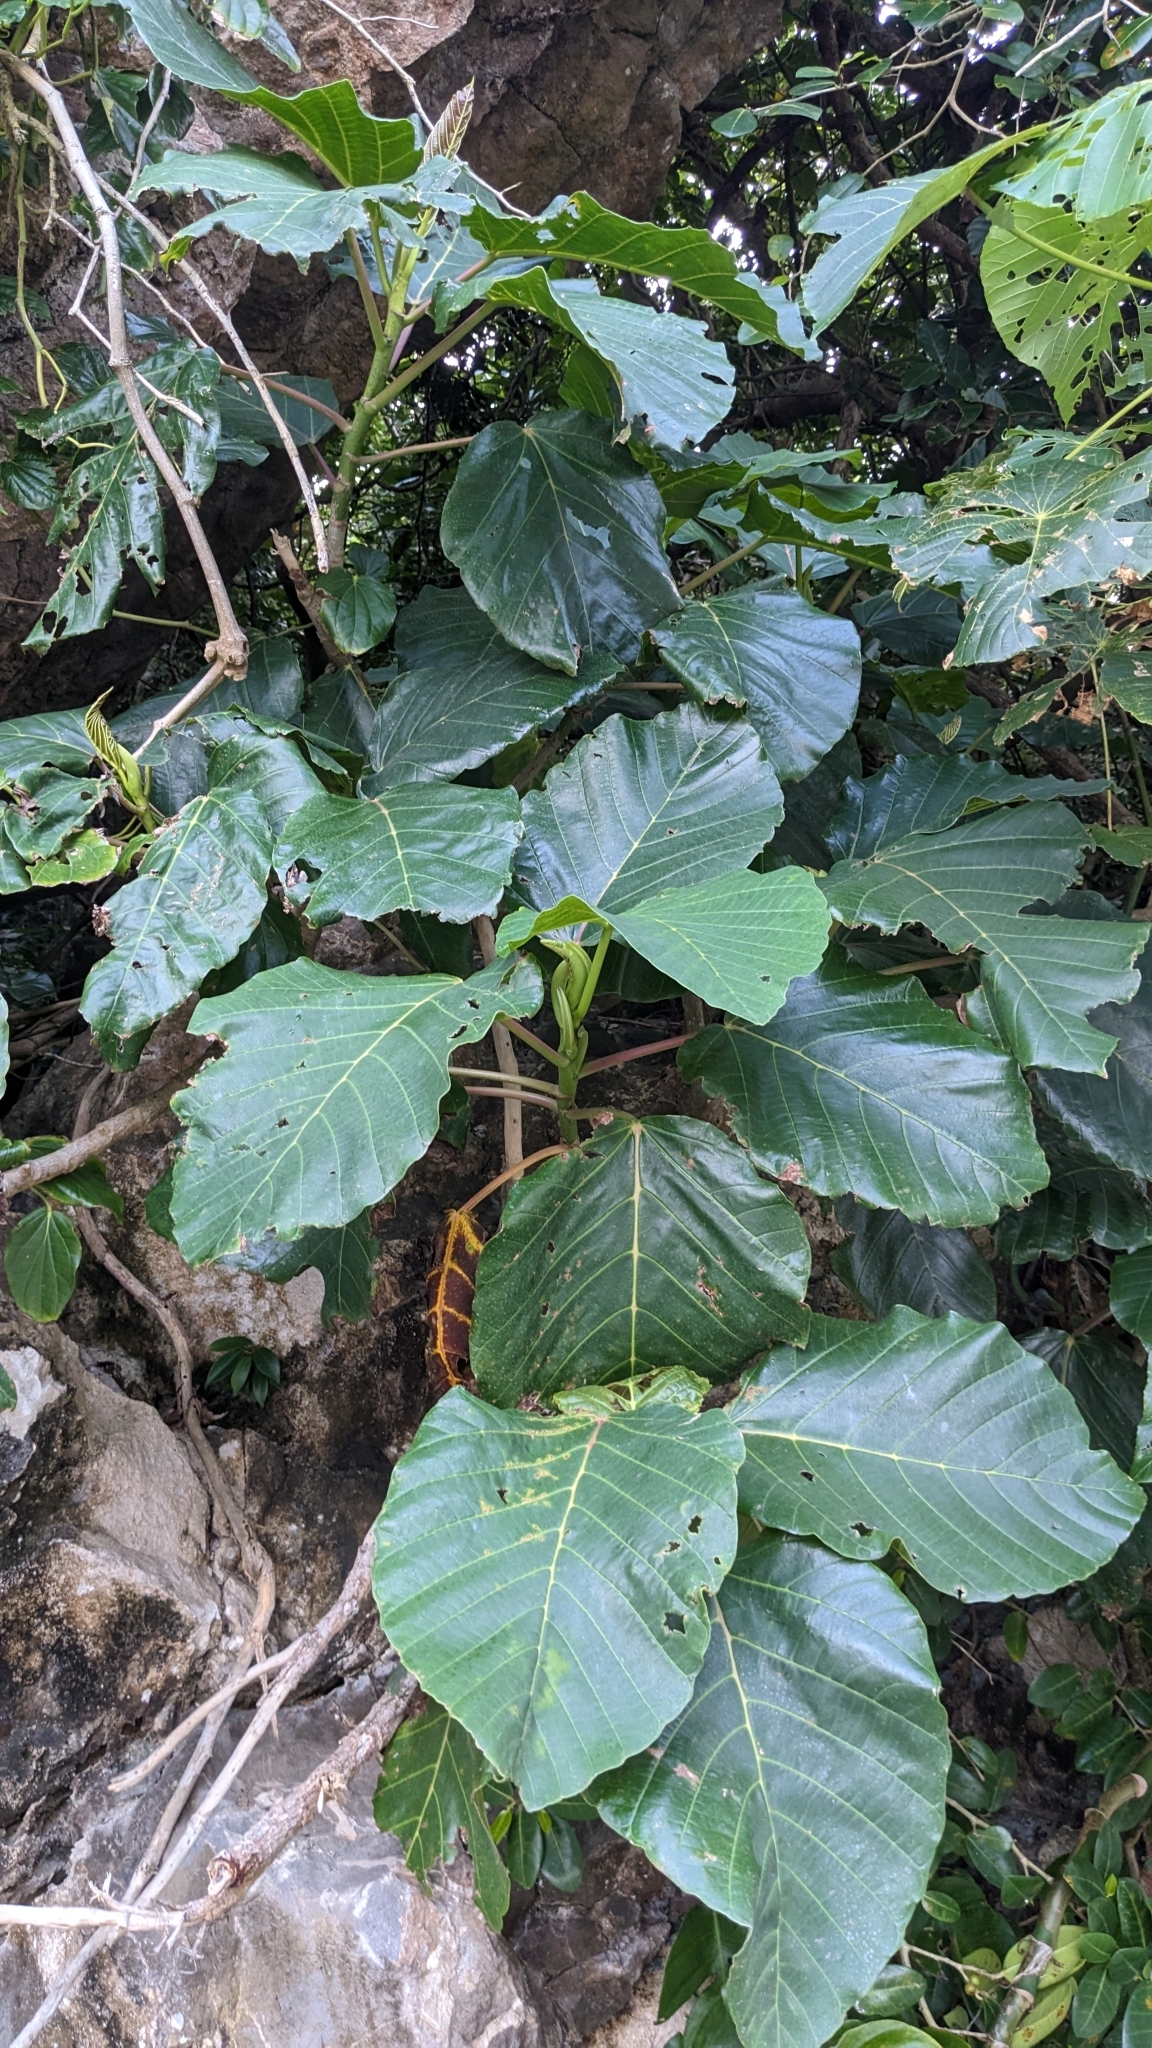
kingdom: Plantae
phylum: Tracheophyta
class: Magnoliopsida
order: Rosales
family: Urticaceae
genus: Poikilospermum
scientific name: Poikilospermum acuminatum
